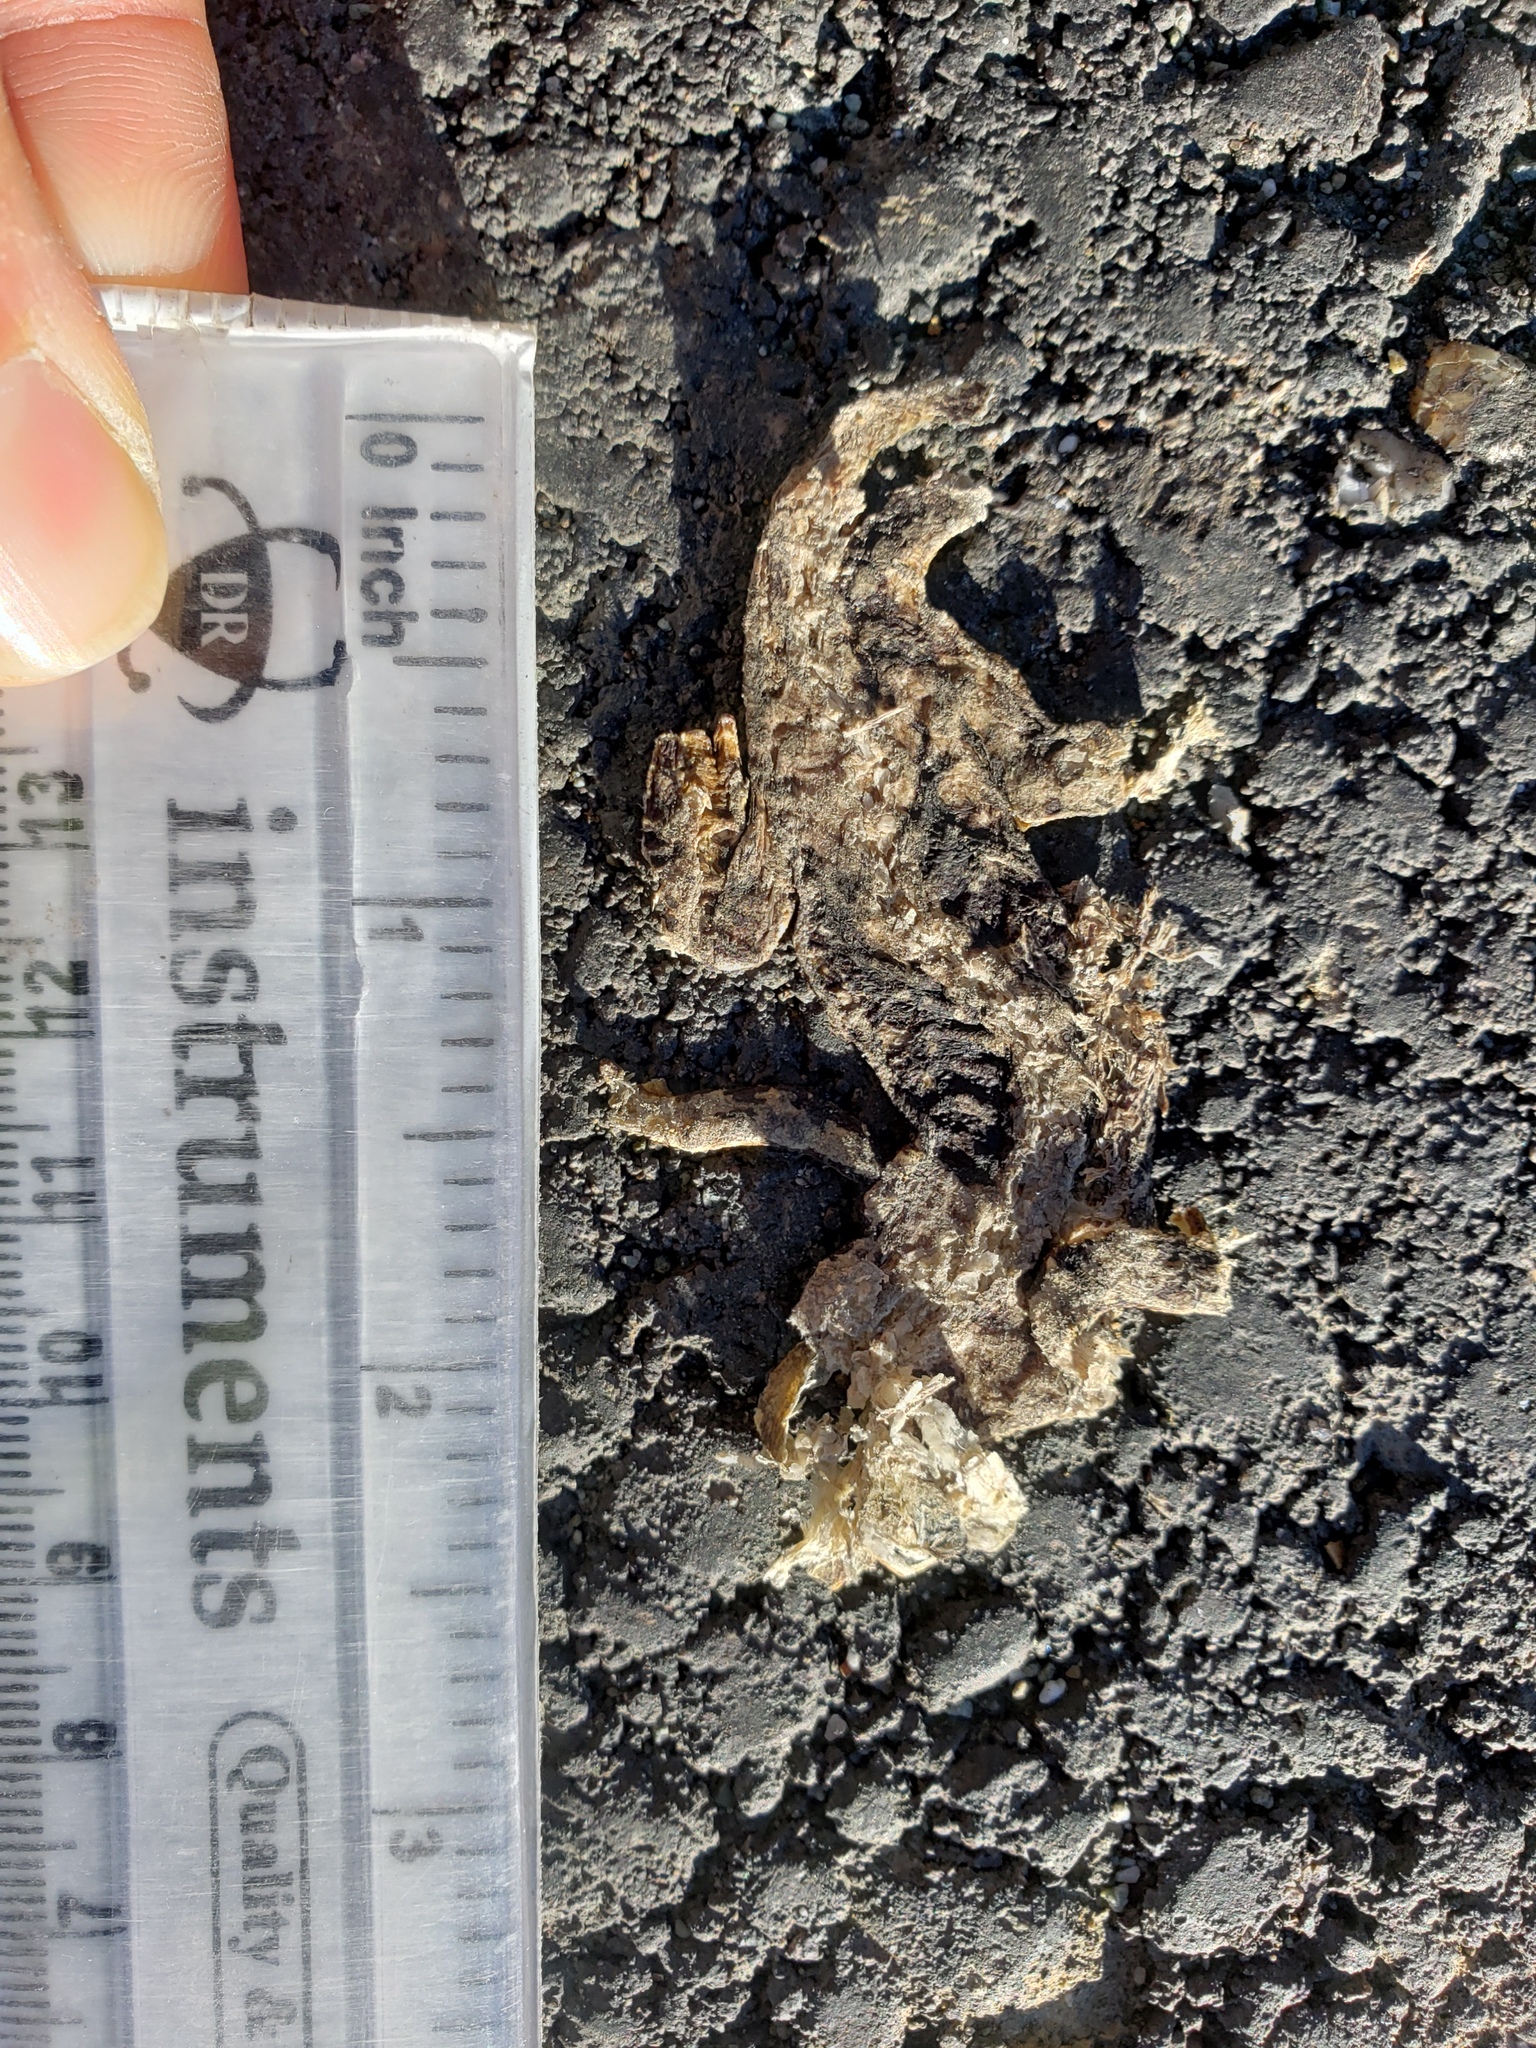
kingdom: Animalia
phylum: Chordata
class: Amphibia
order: Caudata
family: Salamandridae
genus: Taricha
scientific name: Taricha
